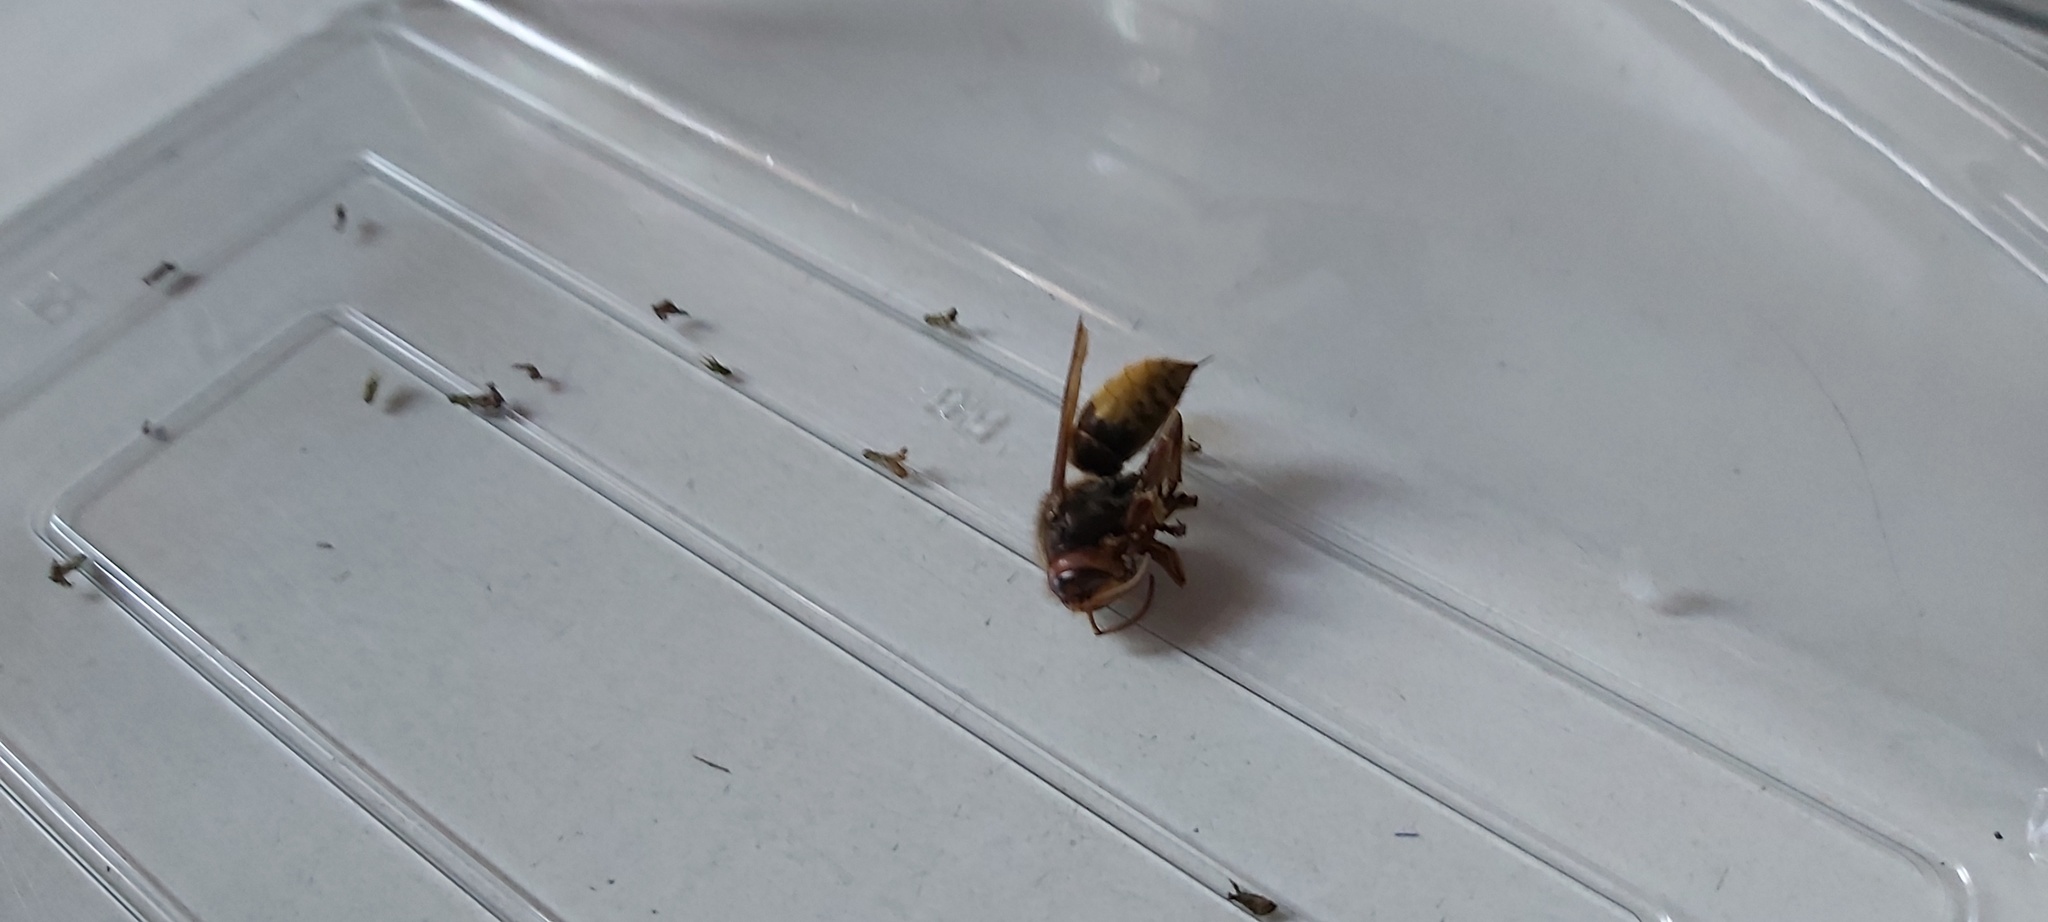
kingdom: Animalia
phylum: Arthropoda
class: Insecta
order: Hymenoptera
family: Vespidae
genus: Vespa
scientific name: Vespa crabro
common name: Hornet
